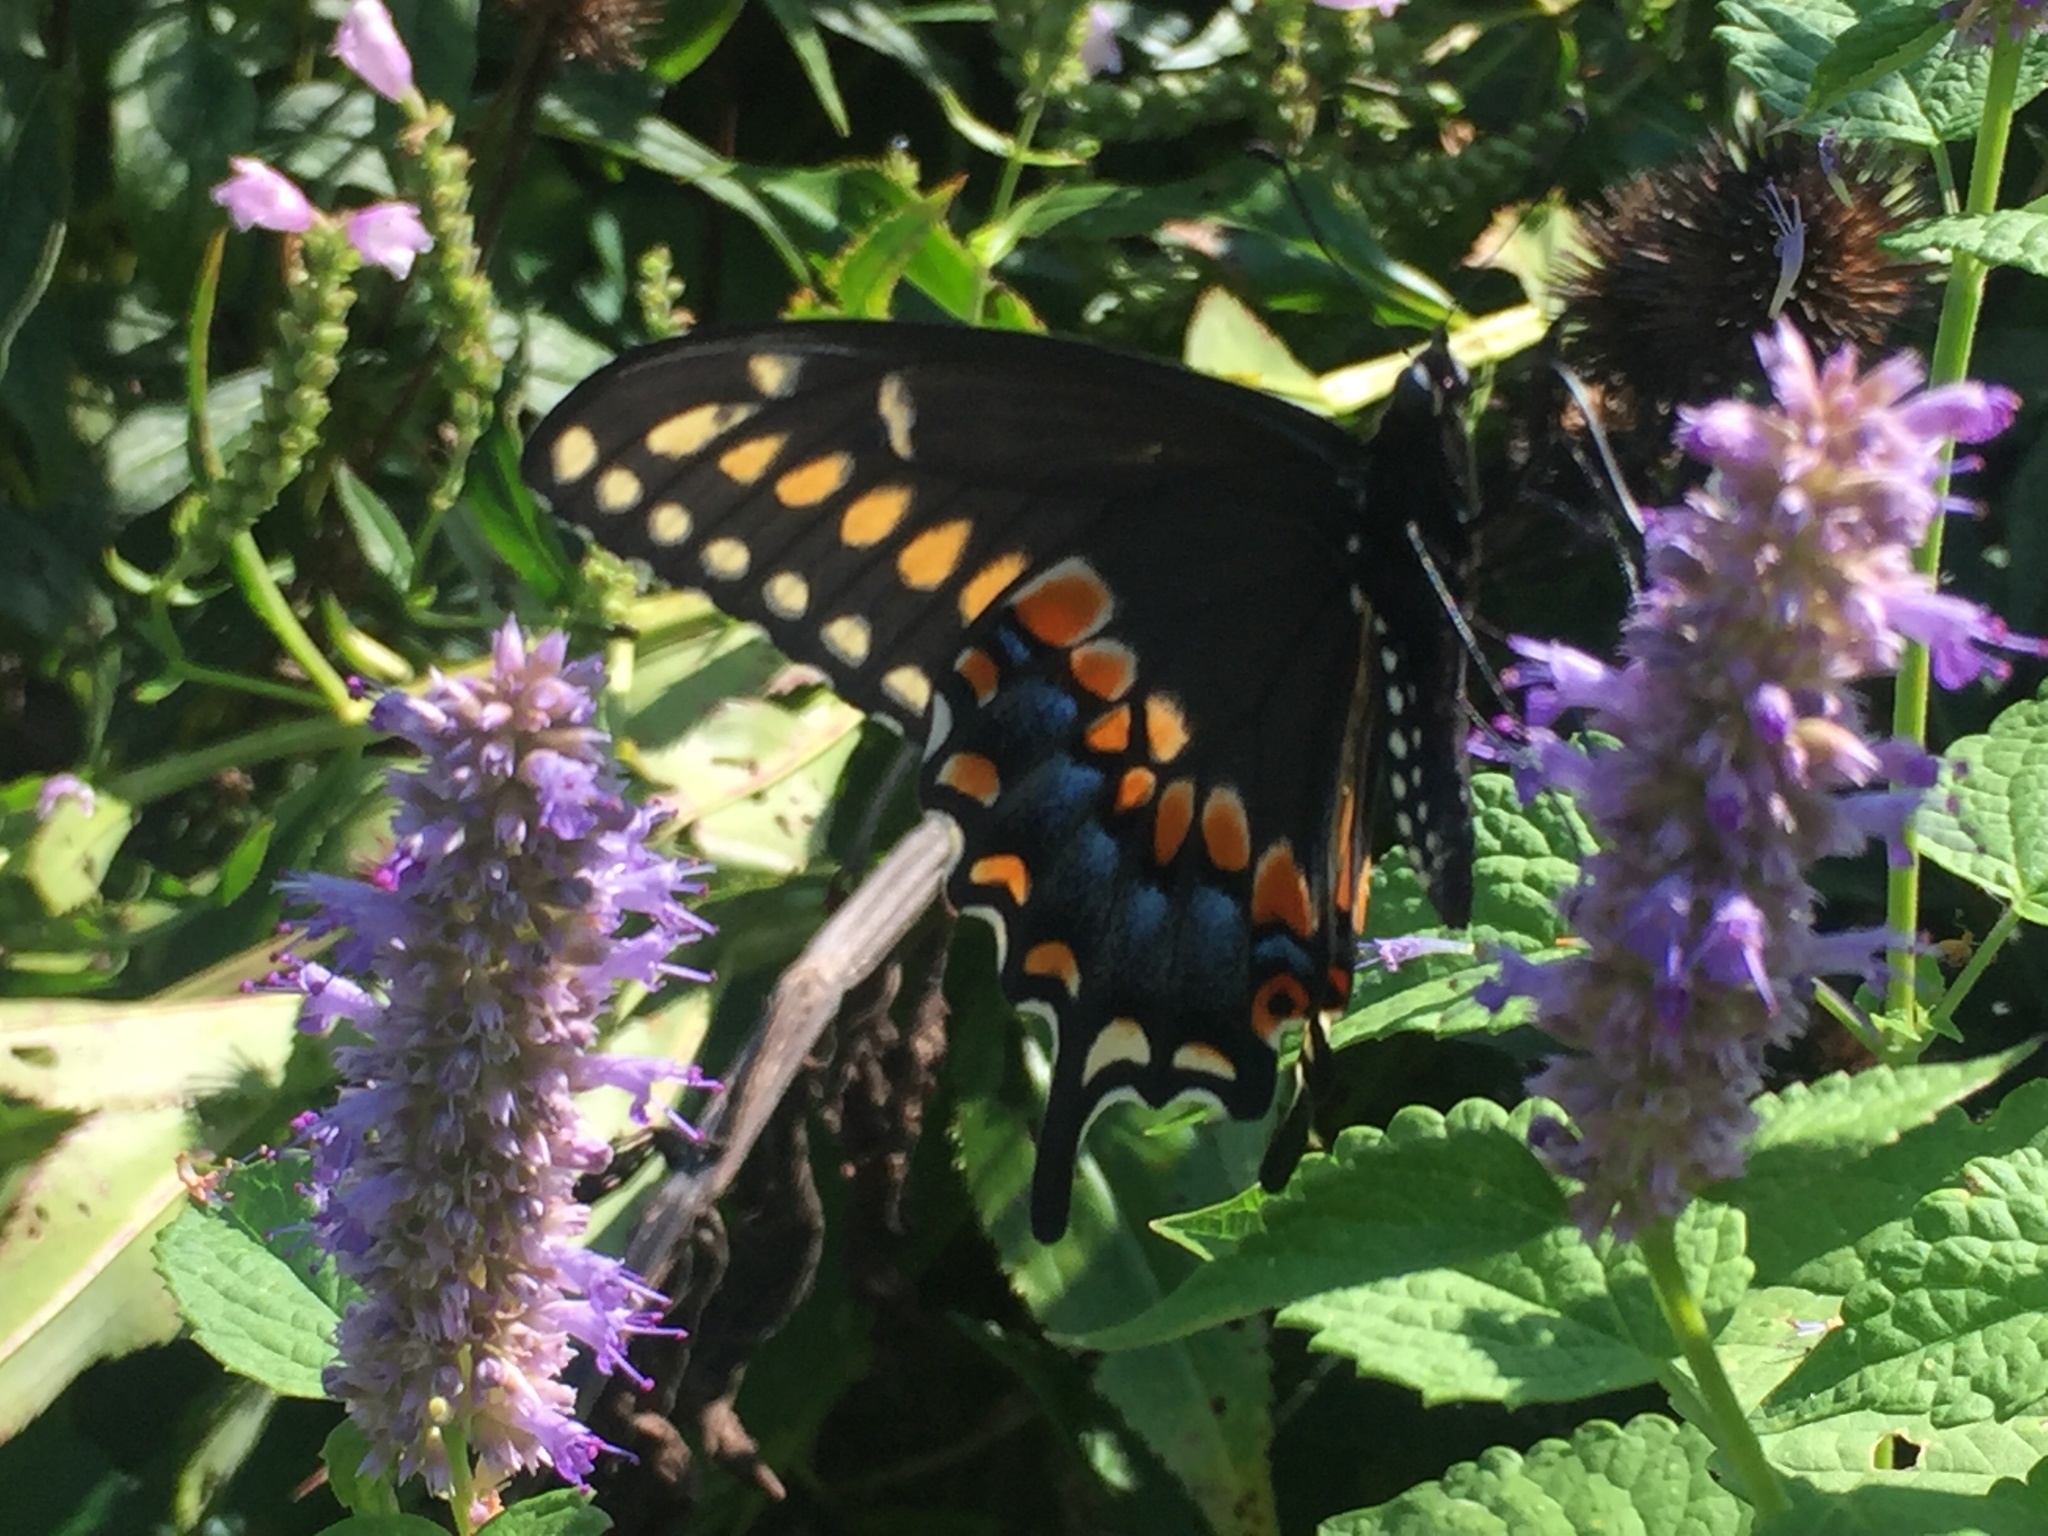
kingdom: Animalia
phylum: Arthropoda
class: Insecta
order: Lepidoptera
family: Papilionidae
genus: Papilio
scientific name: Papilio polyxenes
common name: Black swallowtail
